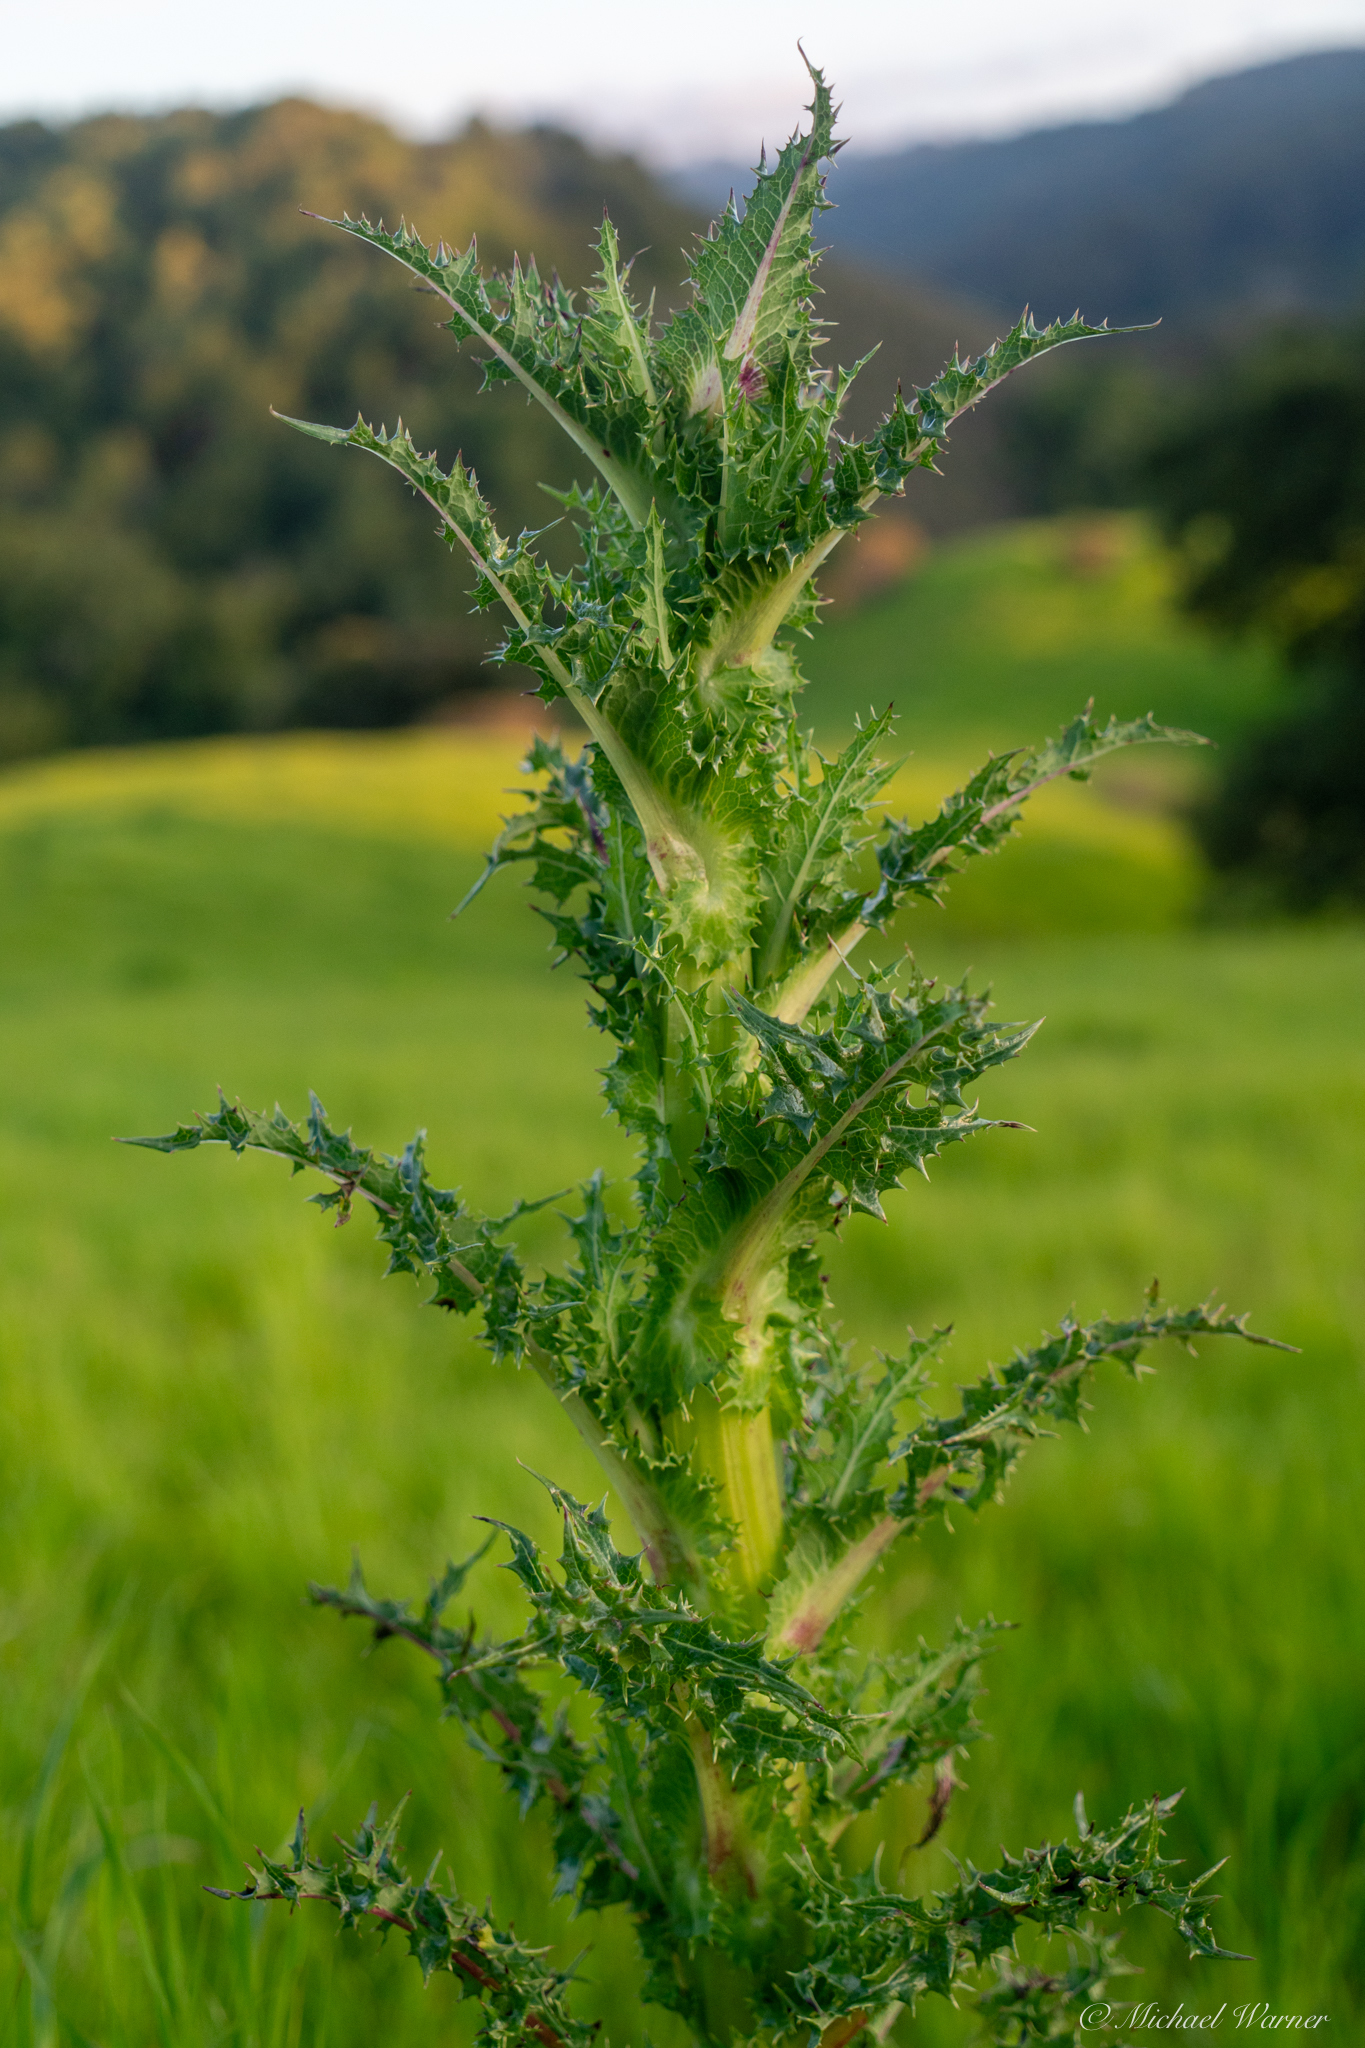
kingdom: Plantae
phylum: Tracheophyta
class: Magnoliopsida
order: Asterales
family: Asteraceae
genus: Sonchus
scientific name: Sonchus asper
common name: Prickly sow-thistle
